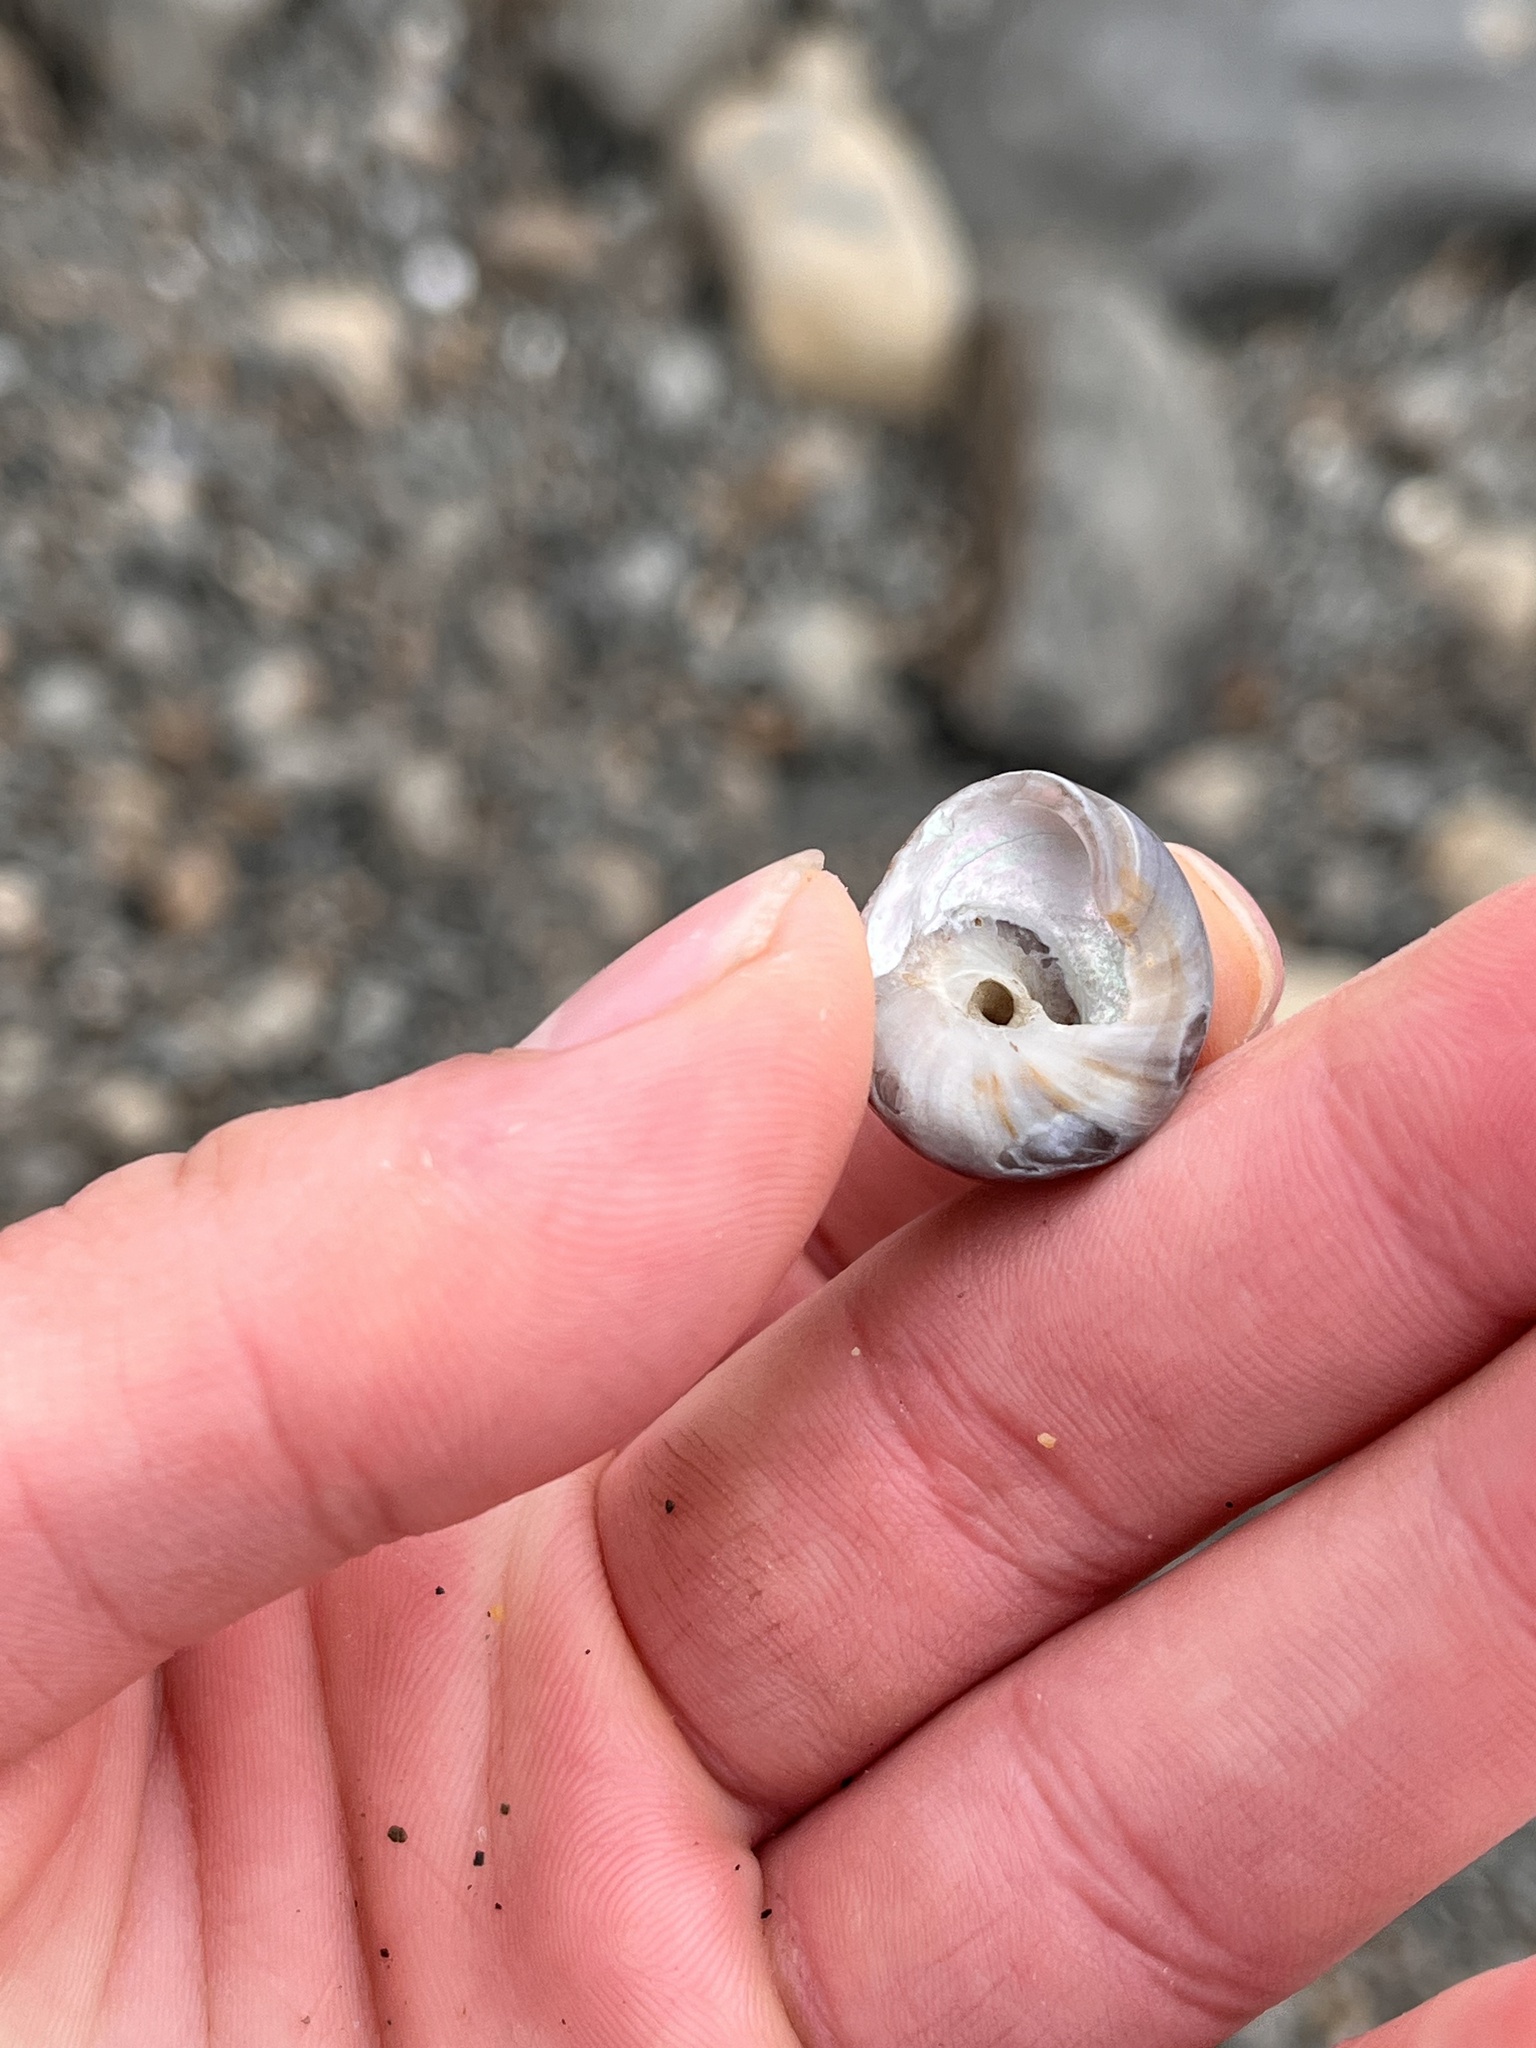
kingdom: Animalia
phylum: Mollusca
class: Gastropoda
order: Trochida
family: Tegulidae
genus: Tegula
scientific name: Tegula pulligo
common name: Brown turban
